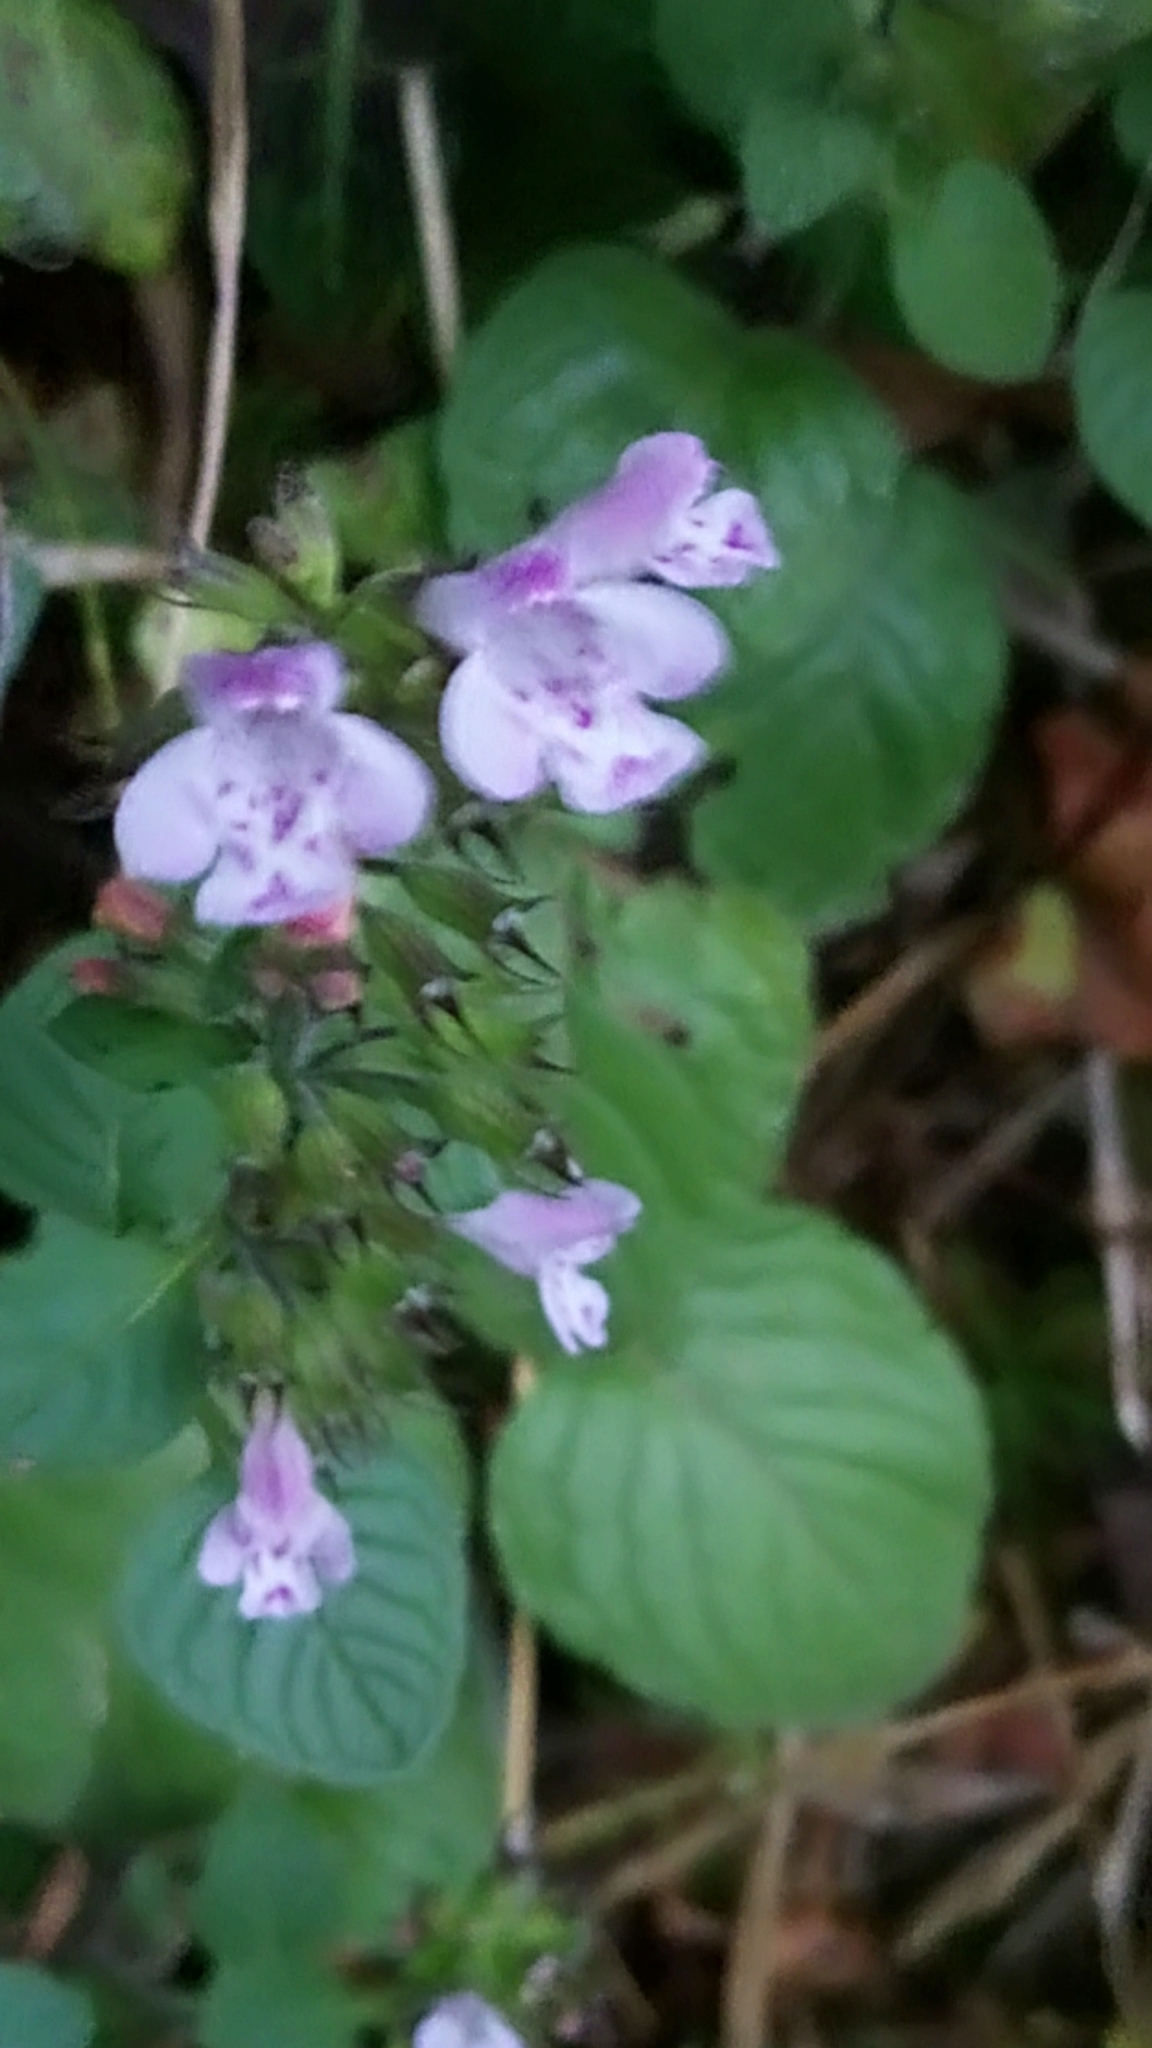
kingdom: Plantae
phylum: Tracheophyta
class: Magnoliopsida
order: Lamiales
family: Lamiaceae
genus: Clinopodium
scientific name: Clinopodium menthifolium
